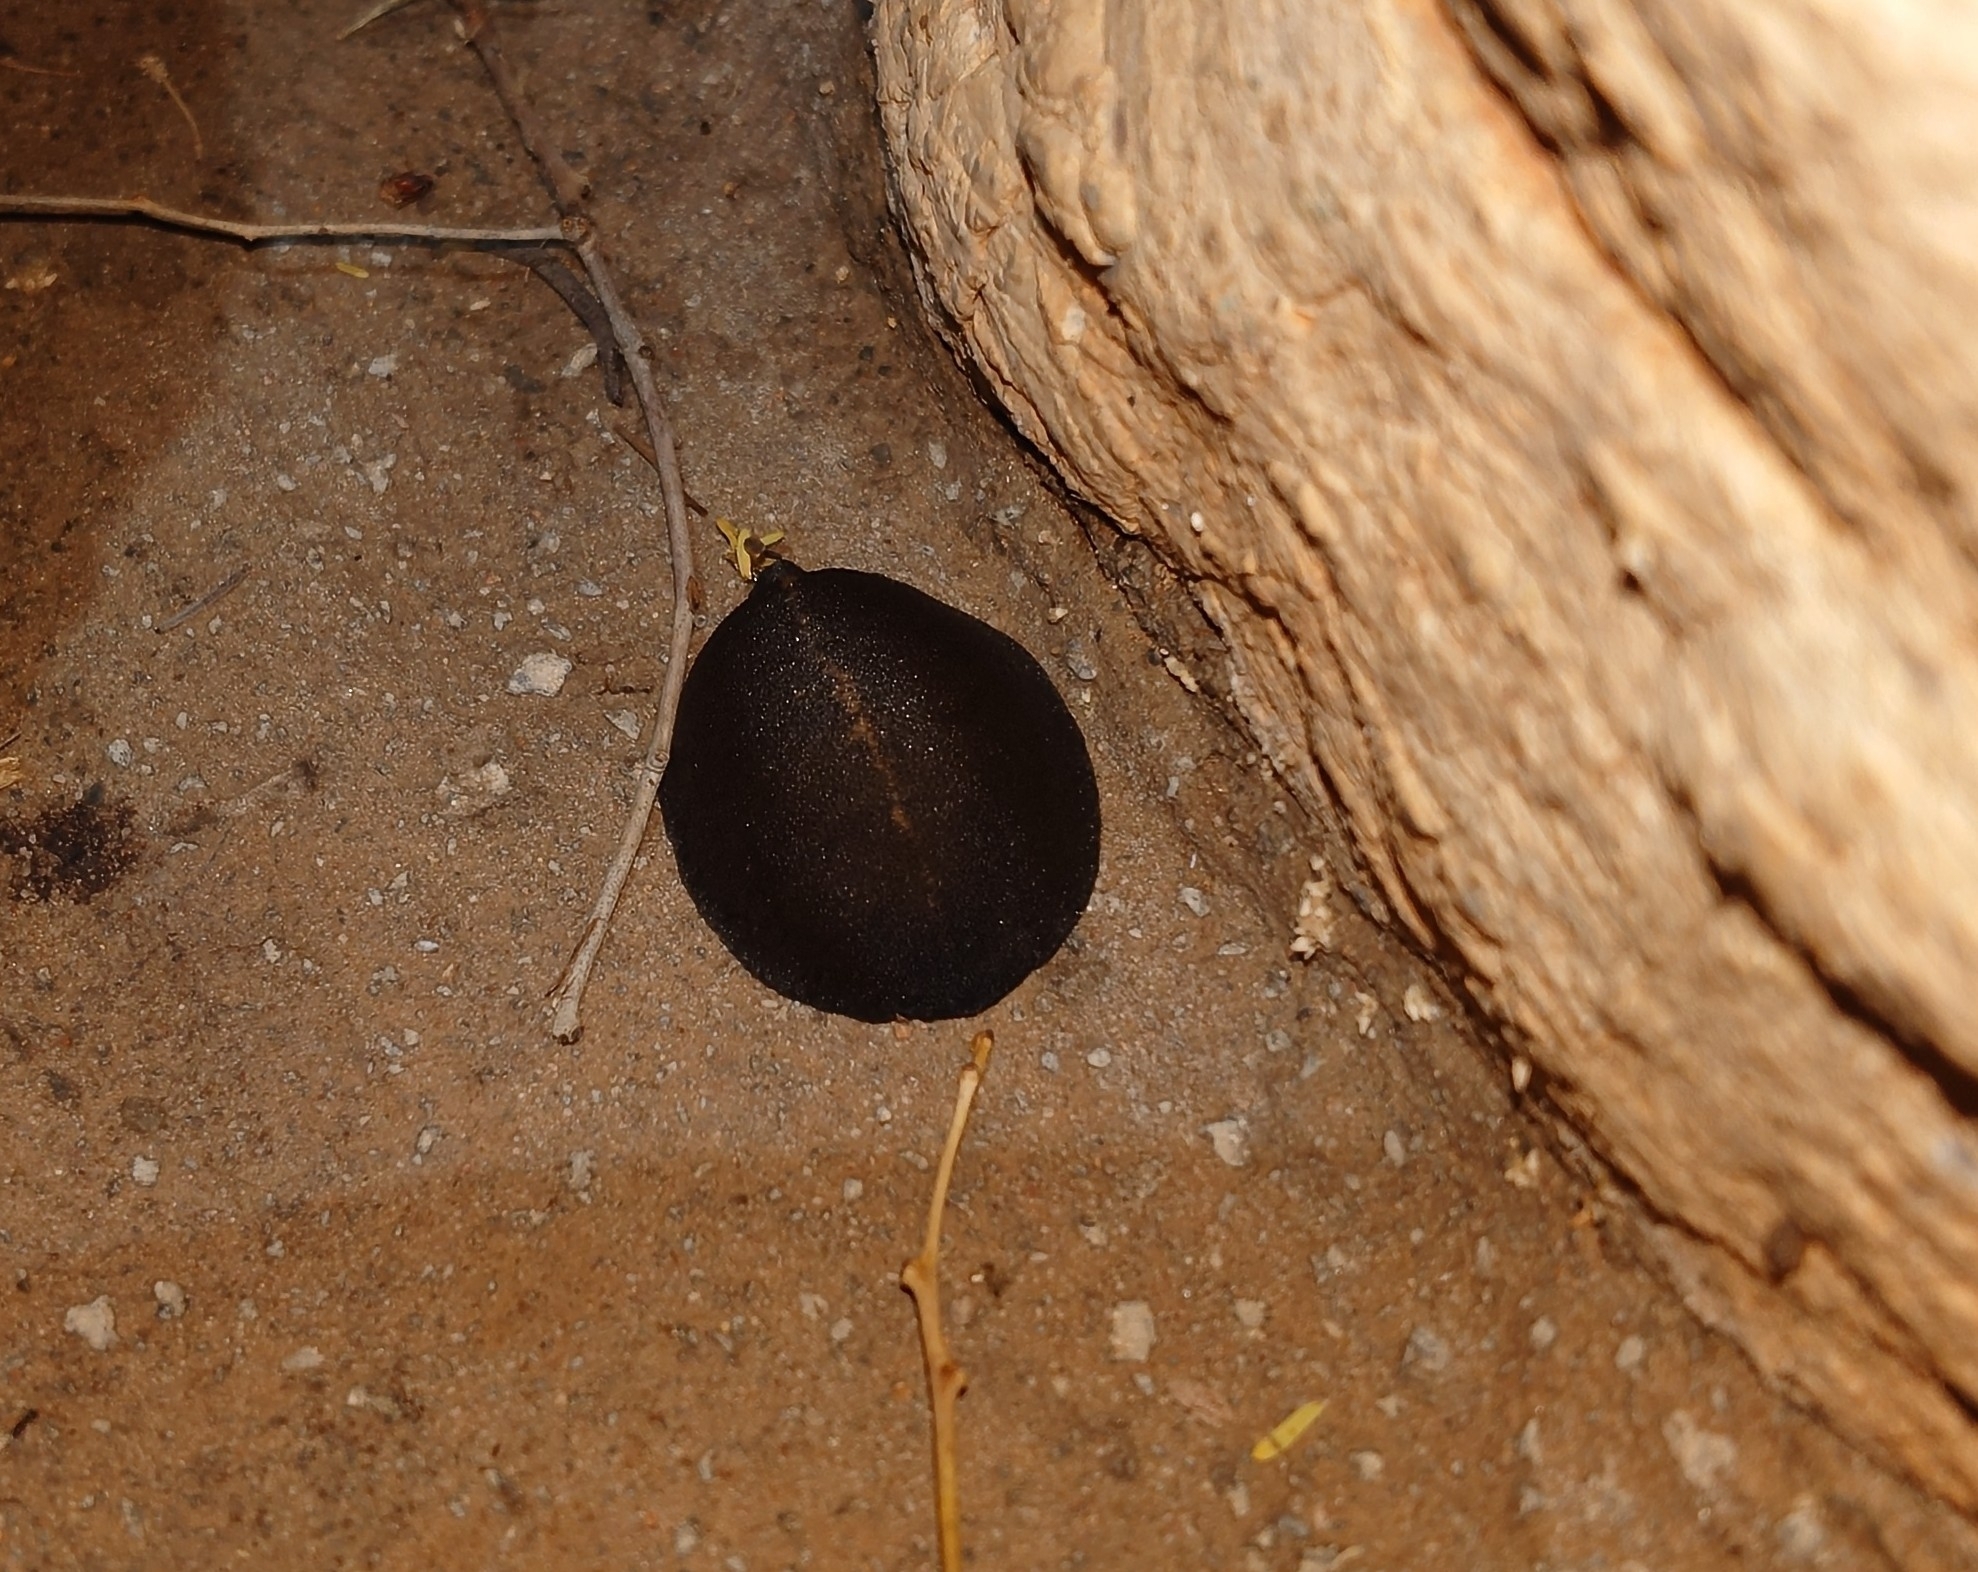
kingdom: Animalia
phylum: Mollusca
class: Gastropoda
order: Systellommatophora
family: Veronicellidae
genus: Laevicaulis
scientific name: Laevicaulis alte
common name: Tropical leatherleaf
